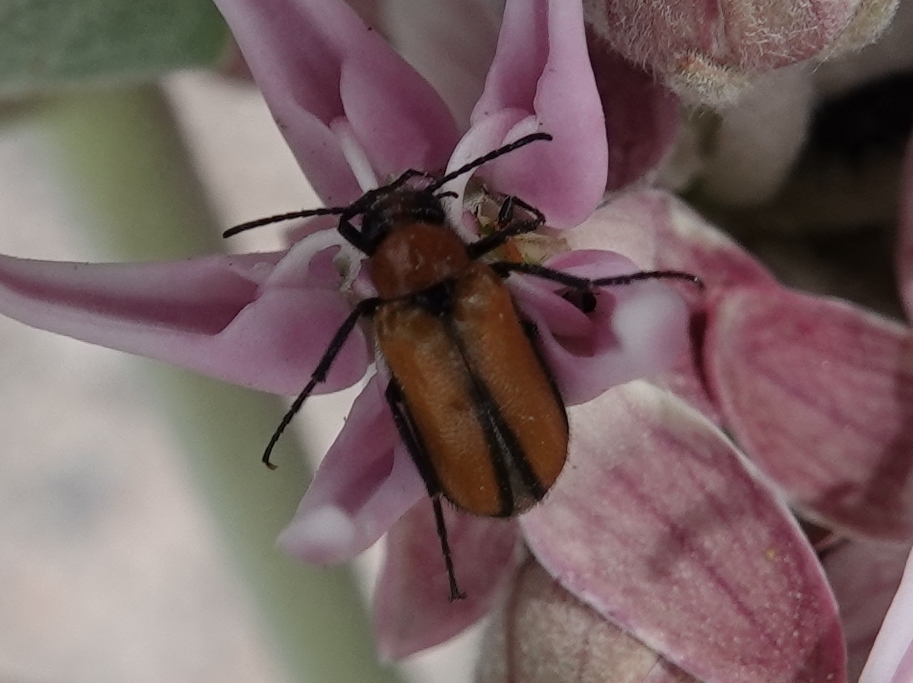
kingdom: Animalia
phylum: Arthropoda
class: Insecta
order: Coleoptera
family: Meloidae
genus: Nemognatha
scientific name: Nemognatha scutellaris
